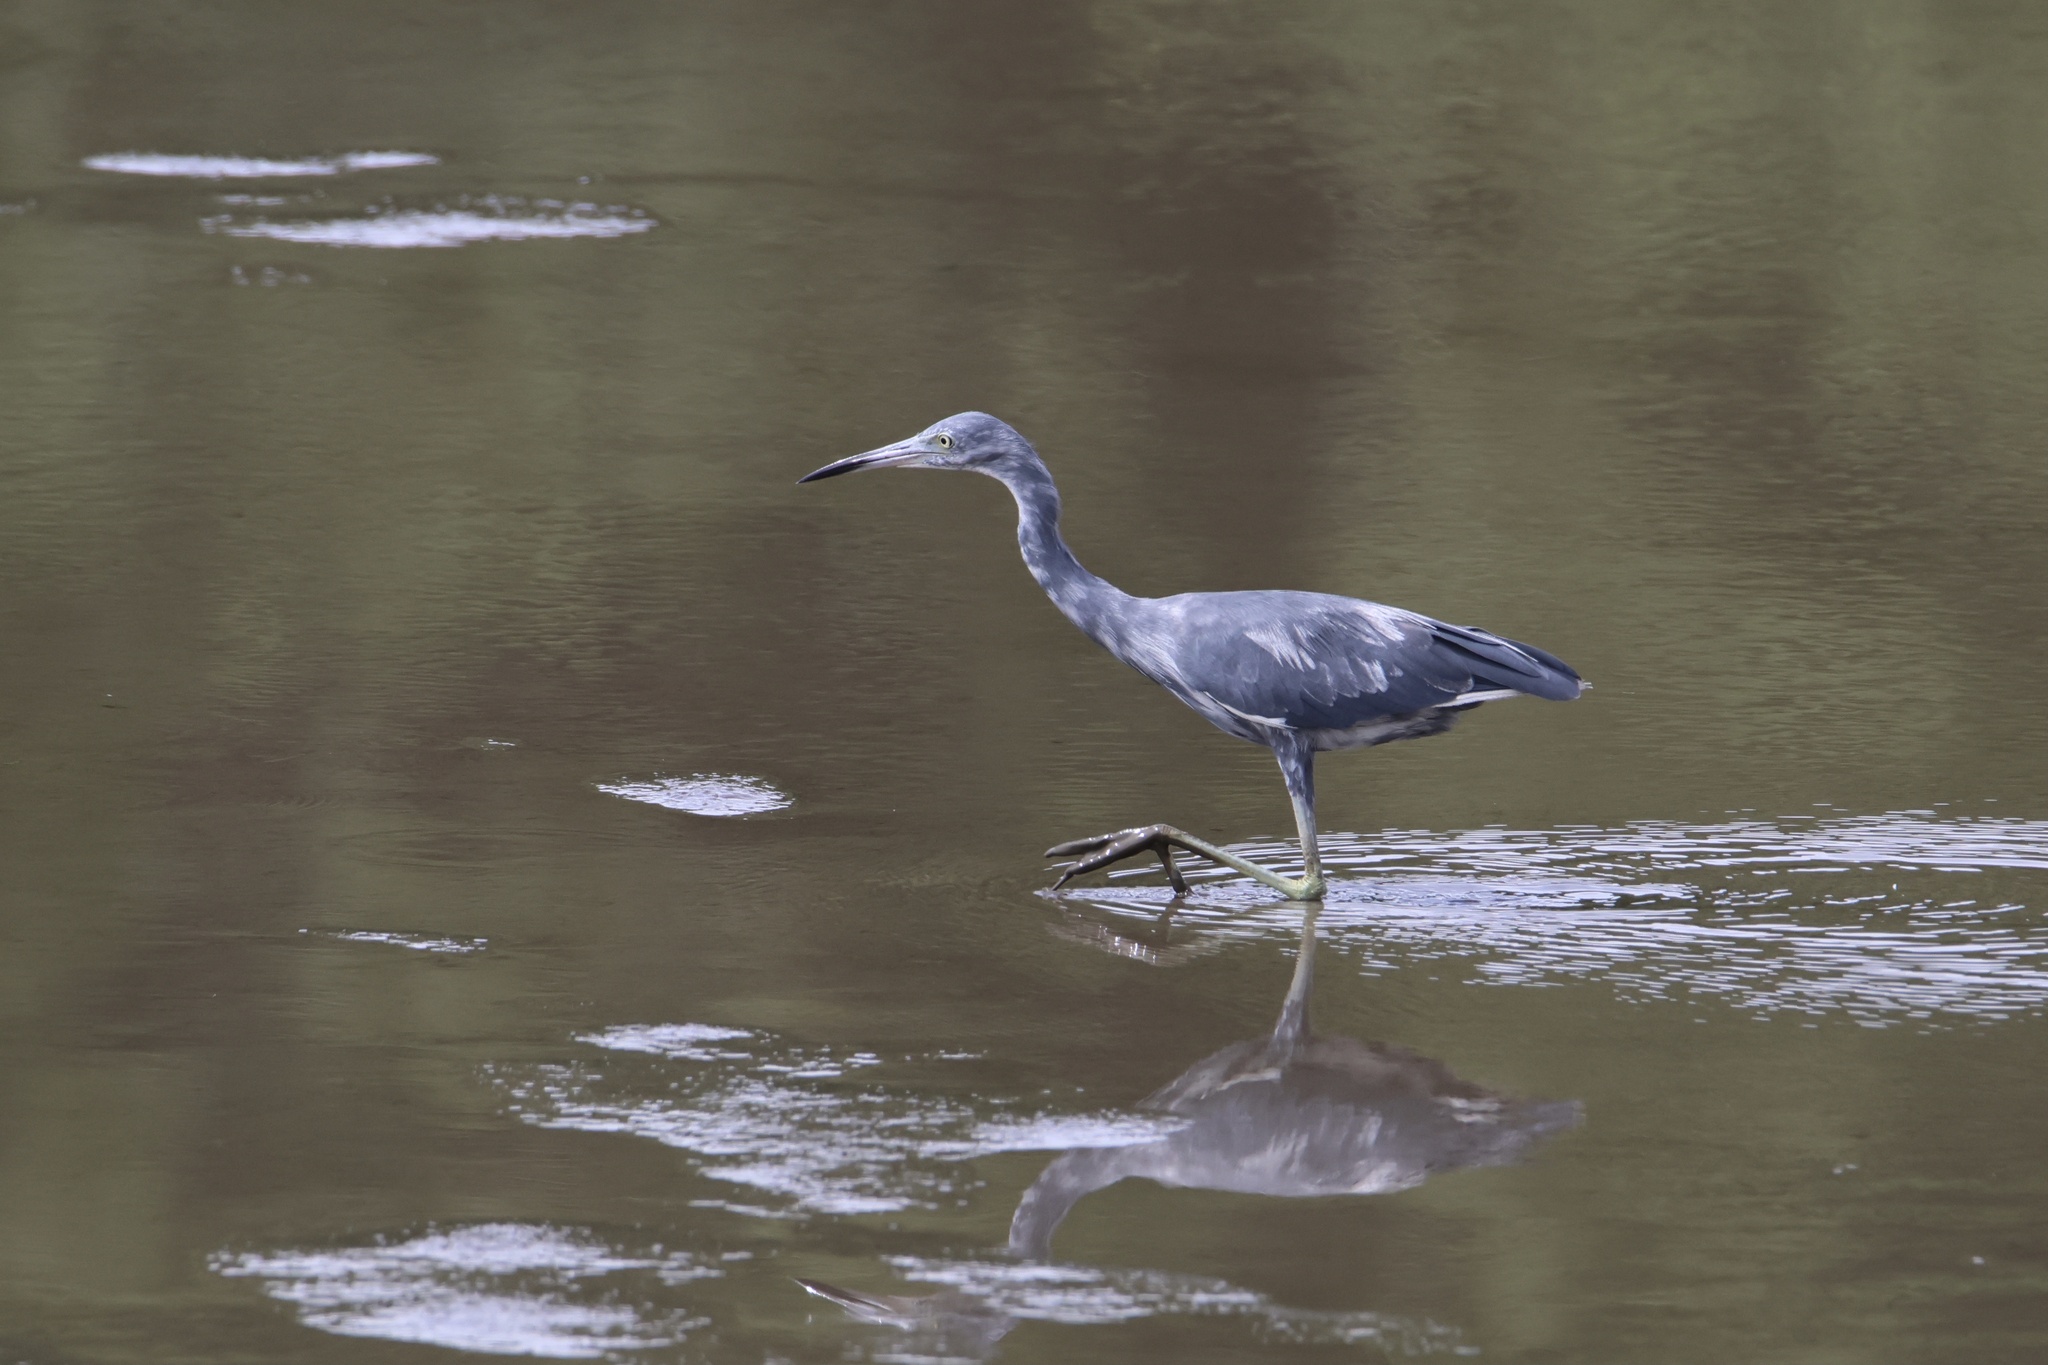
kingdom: Animalia
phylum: Chordata
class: Aves
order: Pelecaniformes
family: Ardeidae
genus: Egretta
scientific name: Egretta caerulea
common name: Little blue heron
